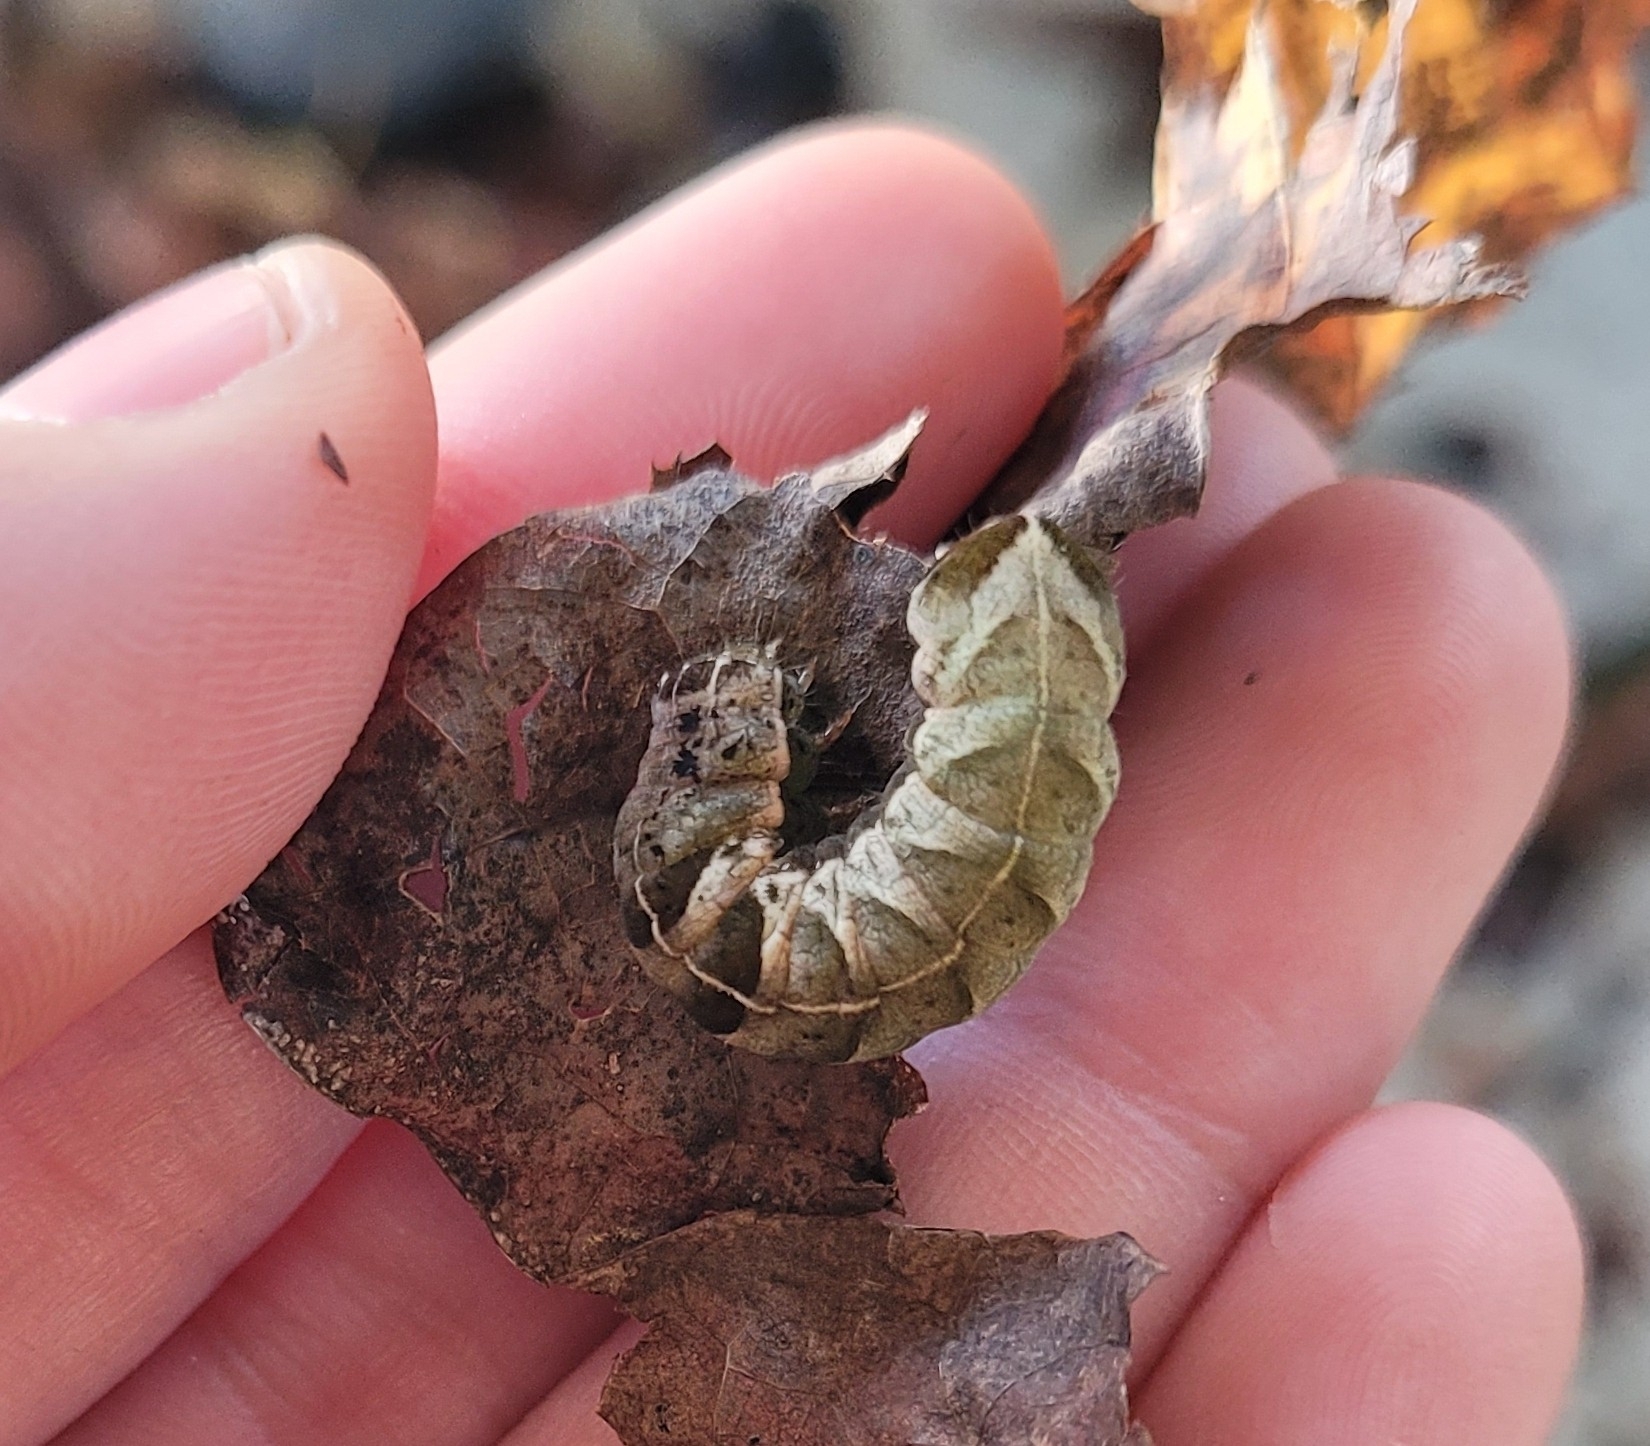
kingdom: Animalia
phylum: Arthropoda
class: Insecta
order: Lepidoptera
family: Noctuidae
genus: Melanchra
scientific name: Melanchra adjuncta
